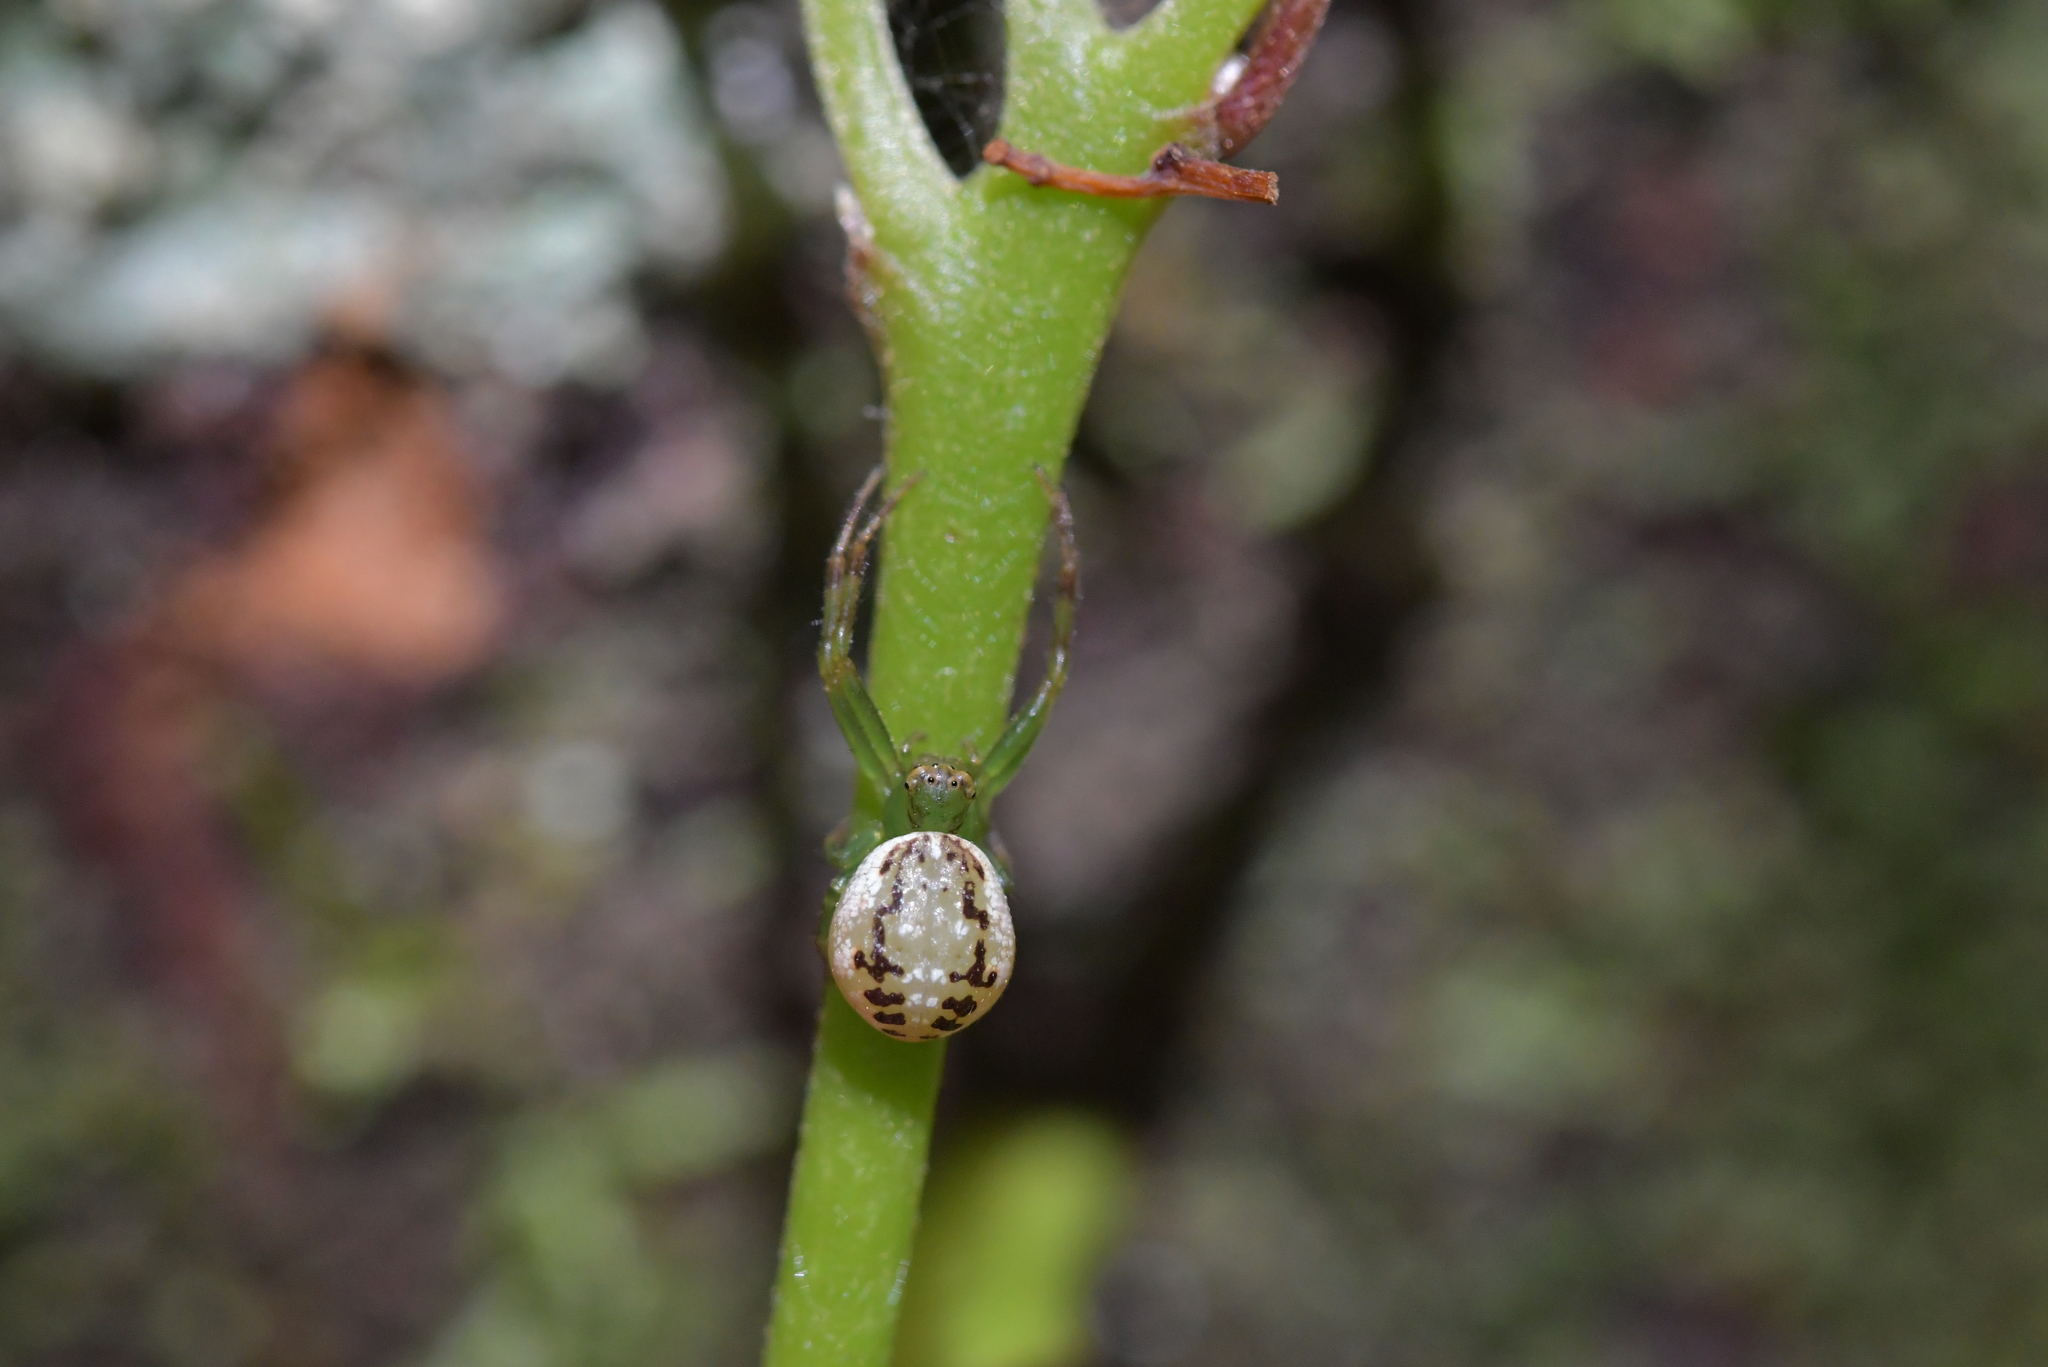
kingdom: Animalia
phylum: Arthropoda
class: Arachnida
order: Araneae
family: Thomisidae
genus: Diaea
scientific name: Diaea ambara
